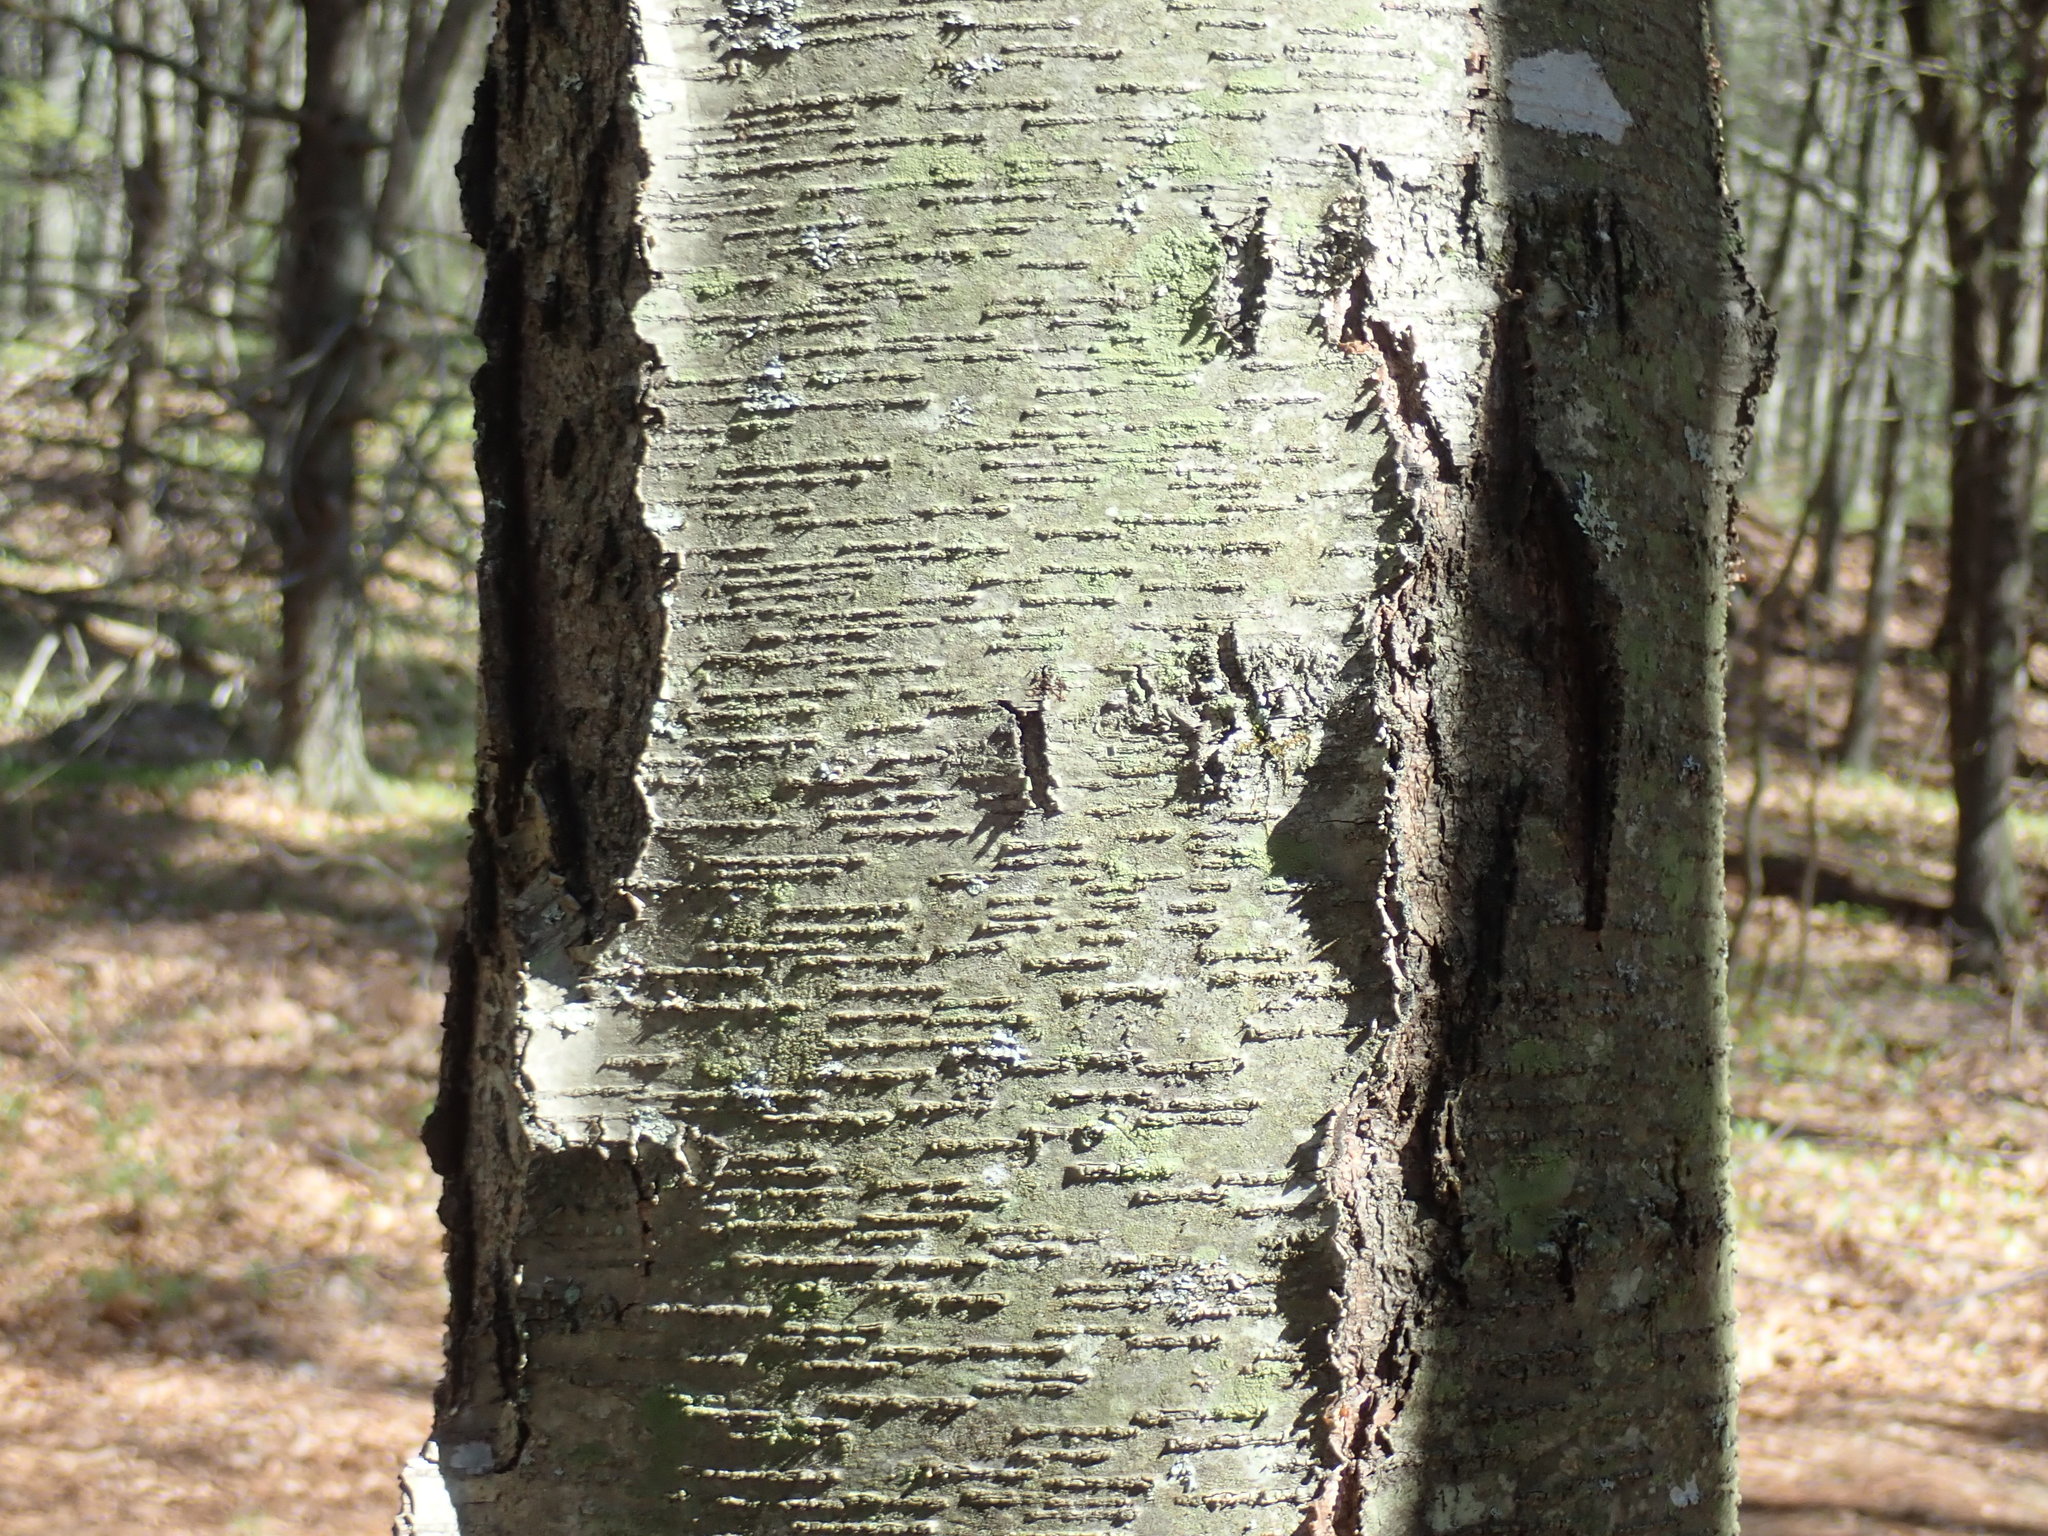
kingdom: Plantae
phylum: Tracheophyta
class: Magnoliopsida
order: Fagales
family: Betulaceae
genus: Betula
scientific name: Betula lenta
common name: Black birch
